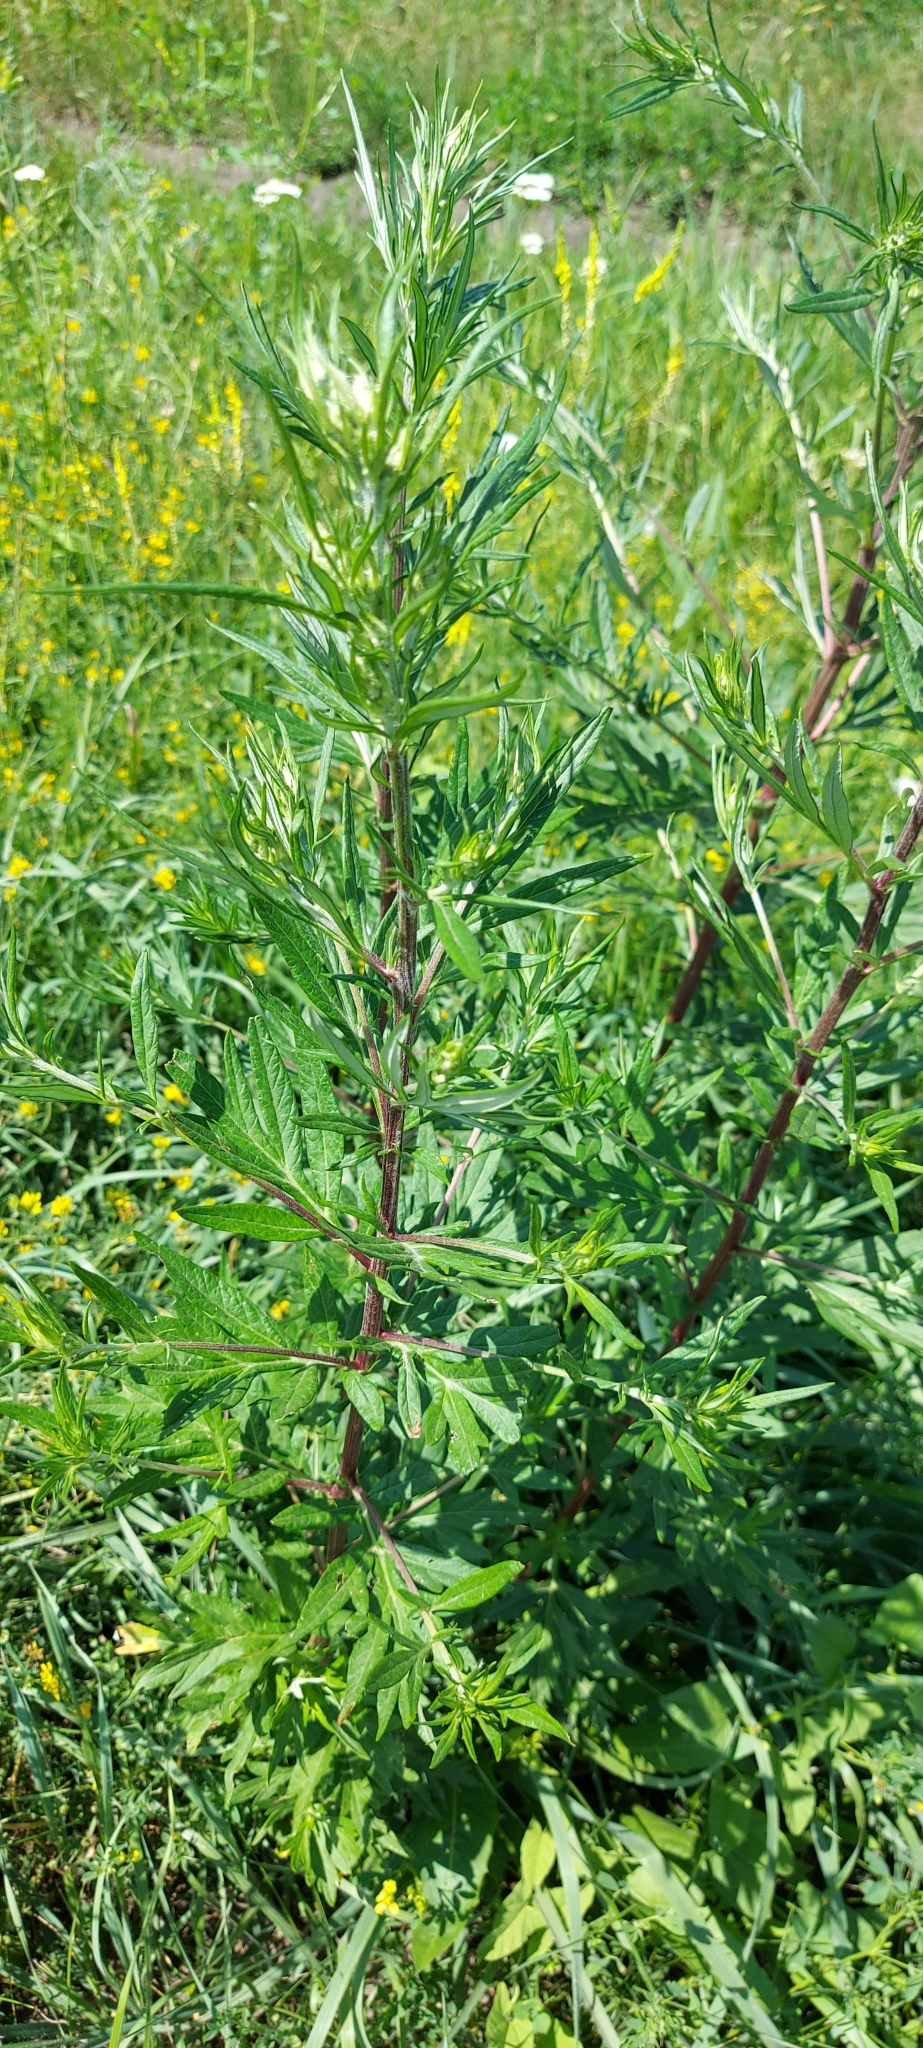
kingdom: Plantae
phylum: Tracheophyta
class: Magnoliopsida
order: Asterales
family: Asteraceae
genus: Artemisia
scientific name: Artemisia vulgaris
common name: Mugwort
